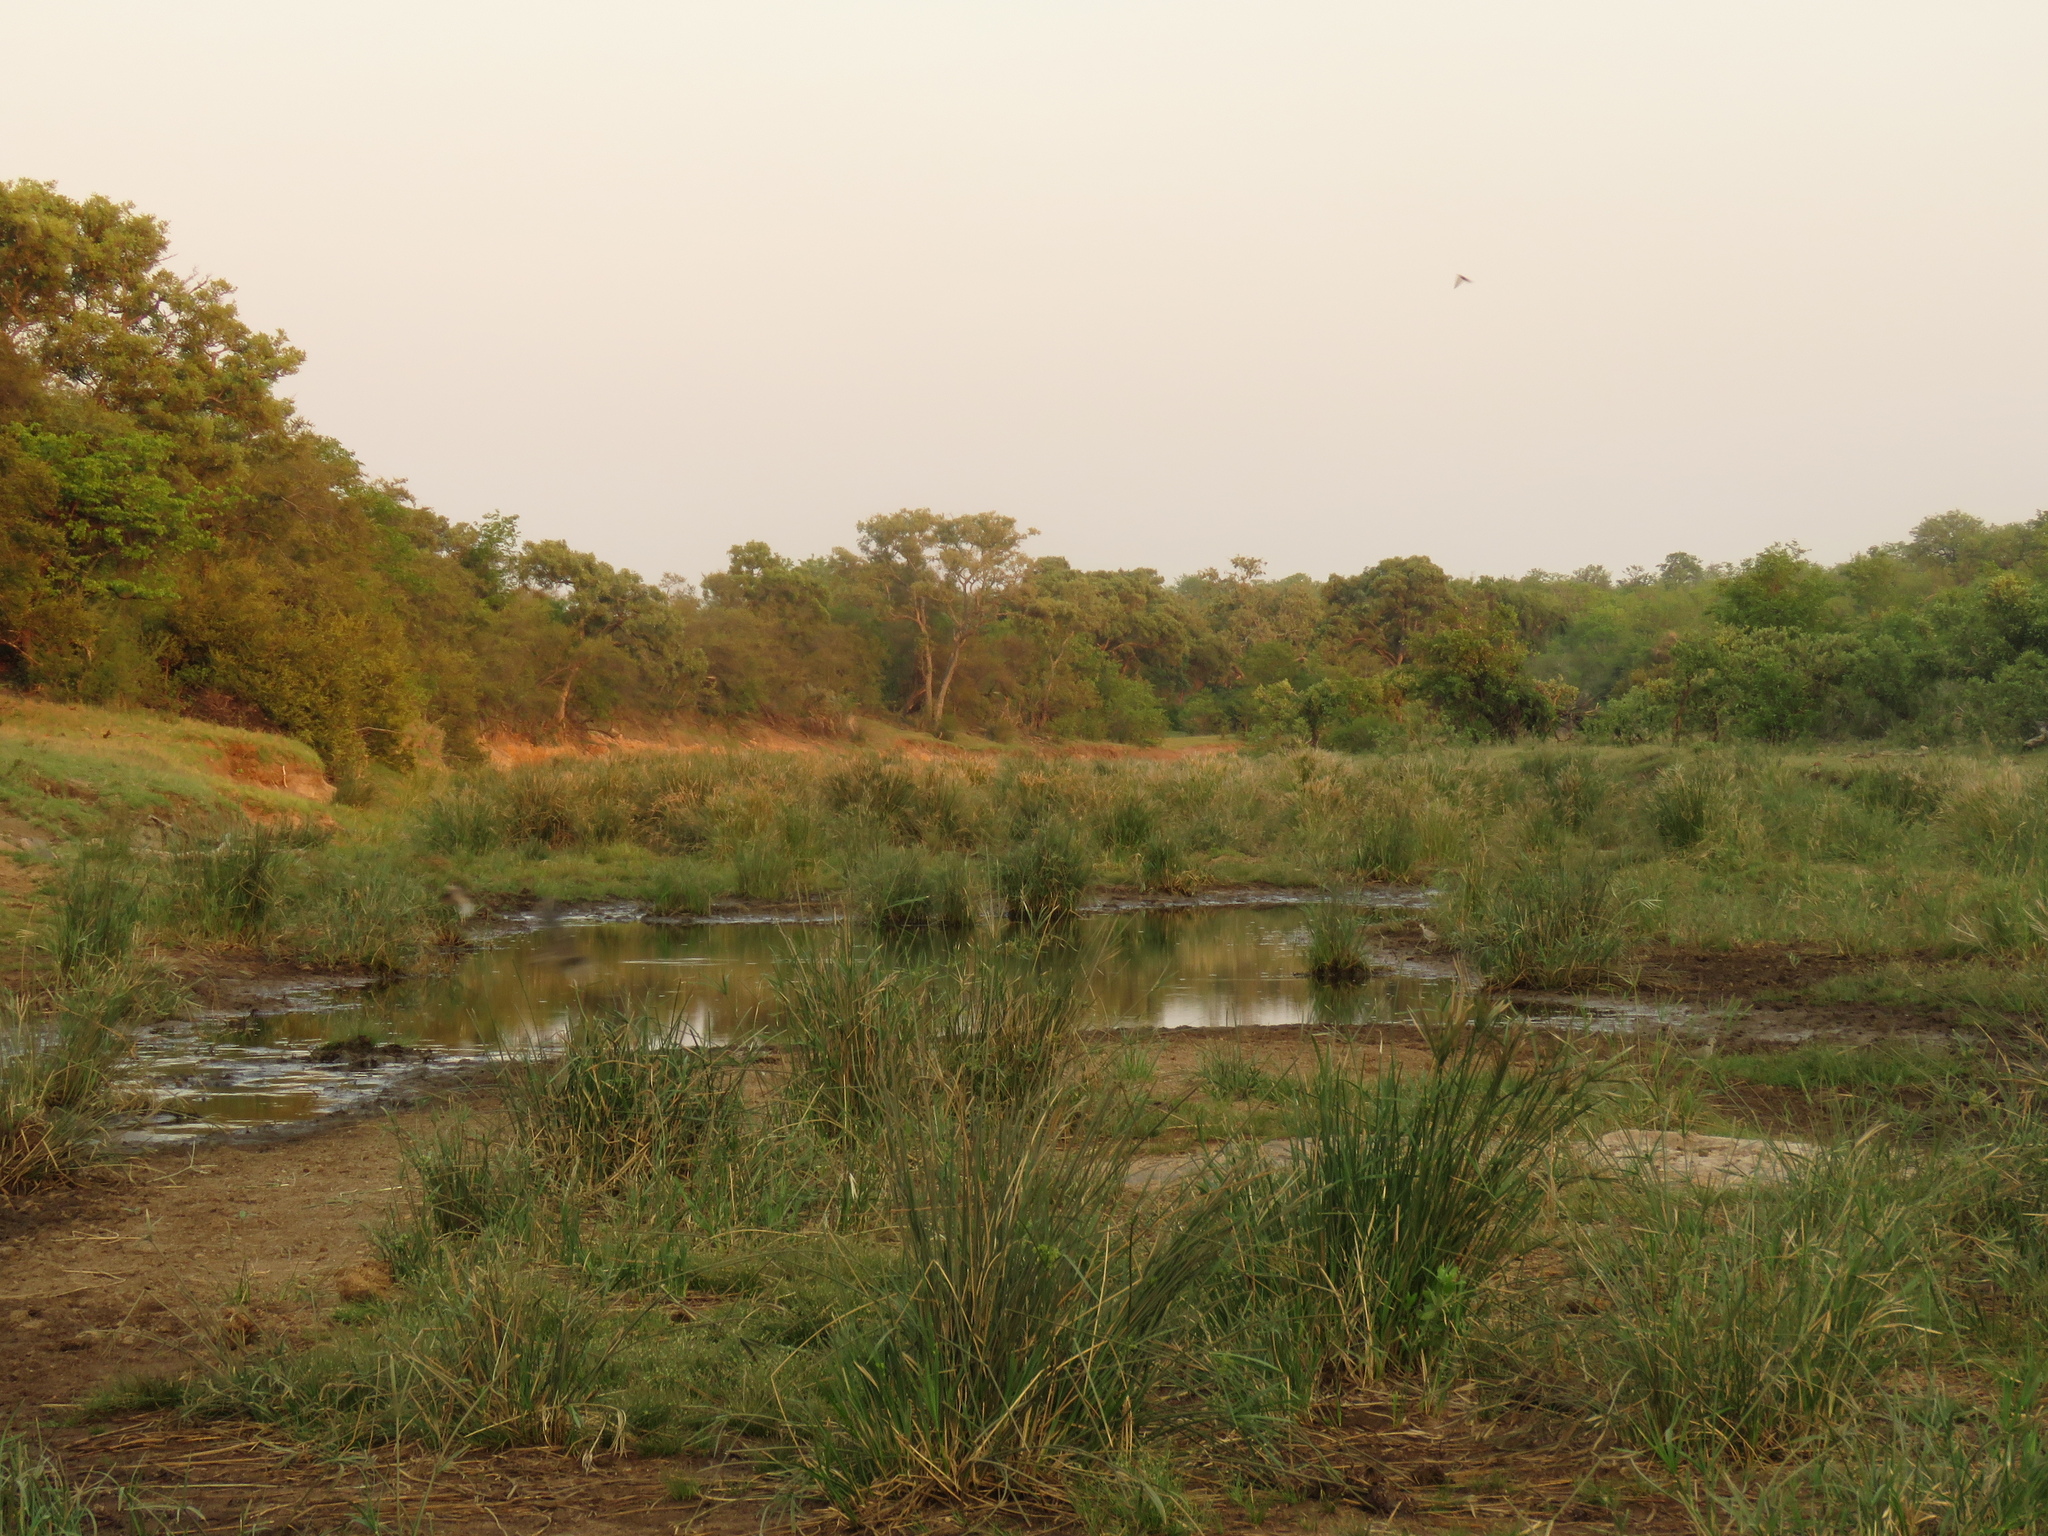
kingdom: Plantae
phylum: Tracheophyta
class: Liliopsida
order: Poales
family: Cyperaceae
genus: Cyperus
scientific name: Cyperus textilis
